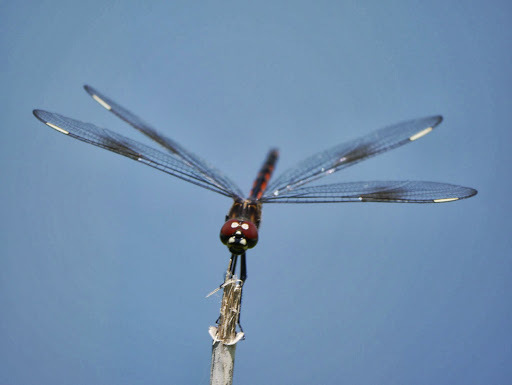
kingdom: Animalia
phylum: Arthropoda
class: Insecta
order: Odonata
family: Libellulidae
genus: Brachymesia
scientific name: Brachymesia gravida
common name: Four-spotted pennant
